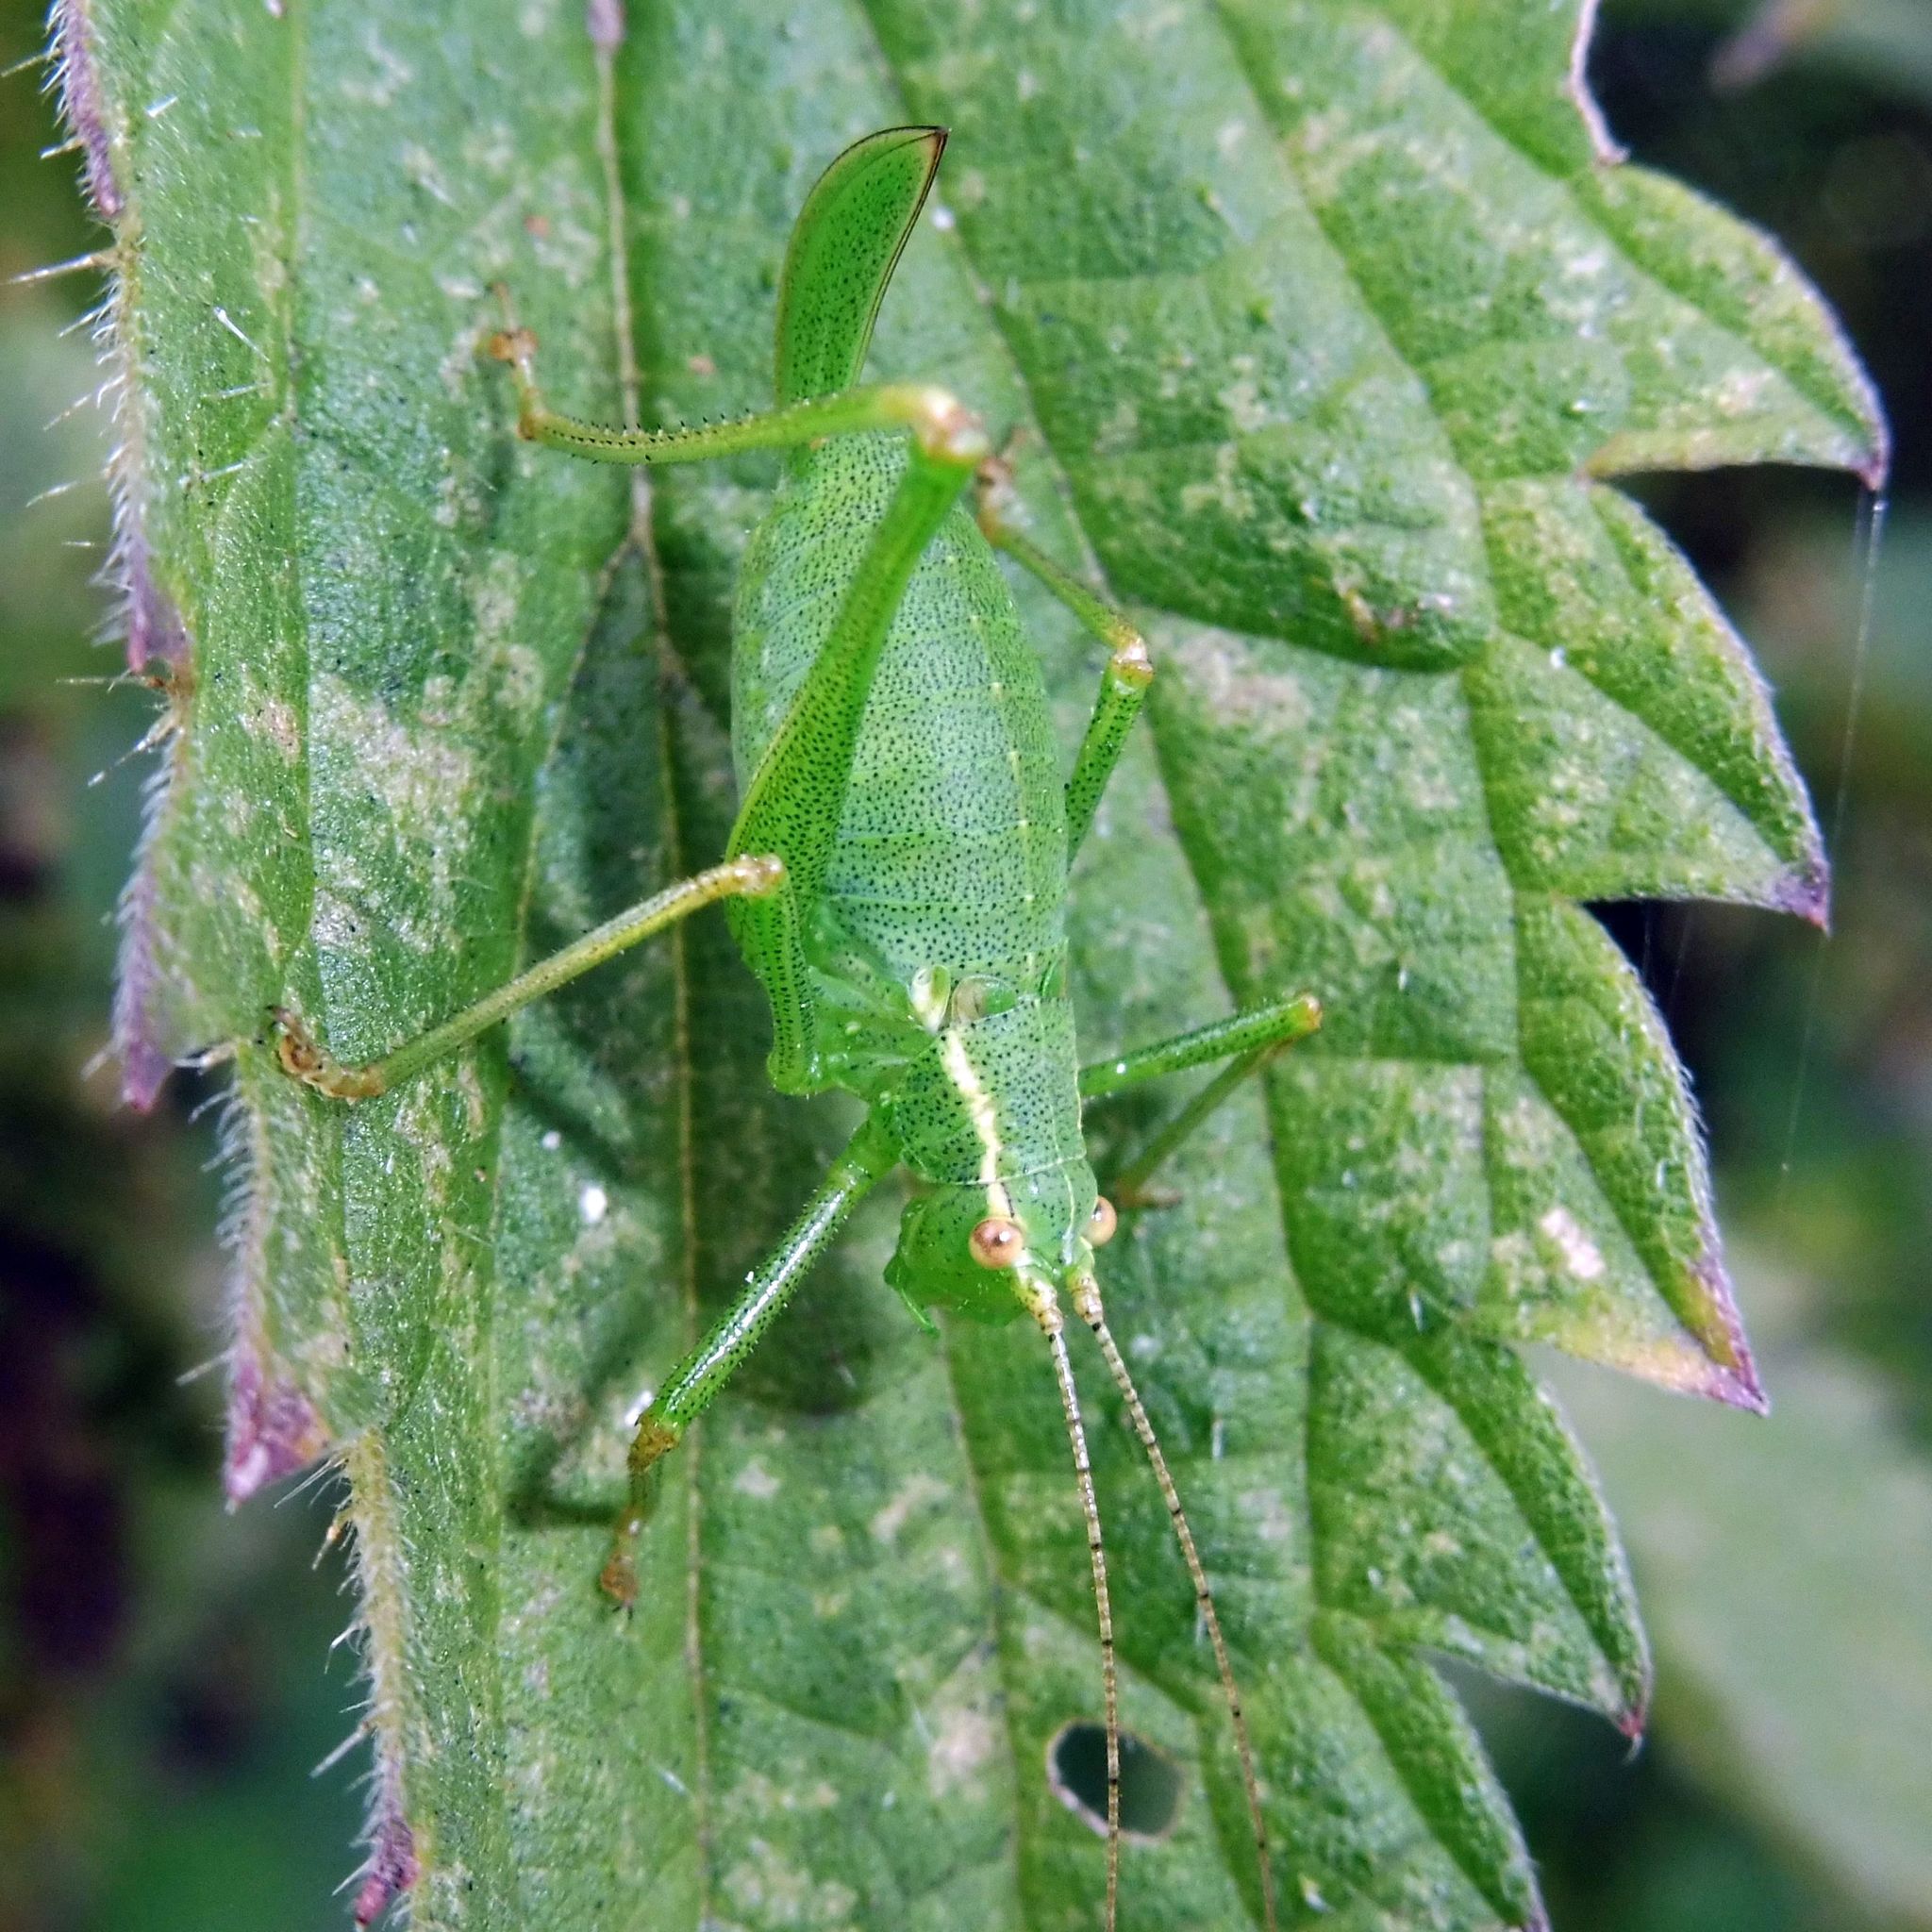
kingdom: Animalia
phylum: Arthropoda
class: Insecta
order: Orthoptera
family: Tettigoniidae
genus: Leptophyes
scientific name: Leptophyes punctatissima
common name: Speckled bush-cricket
